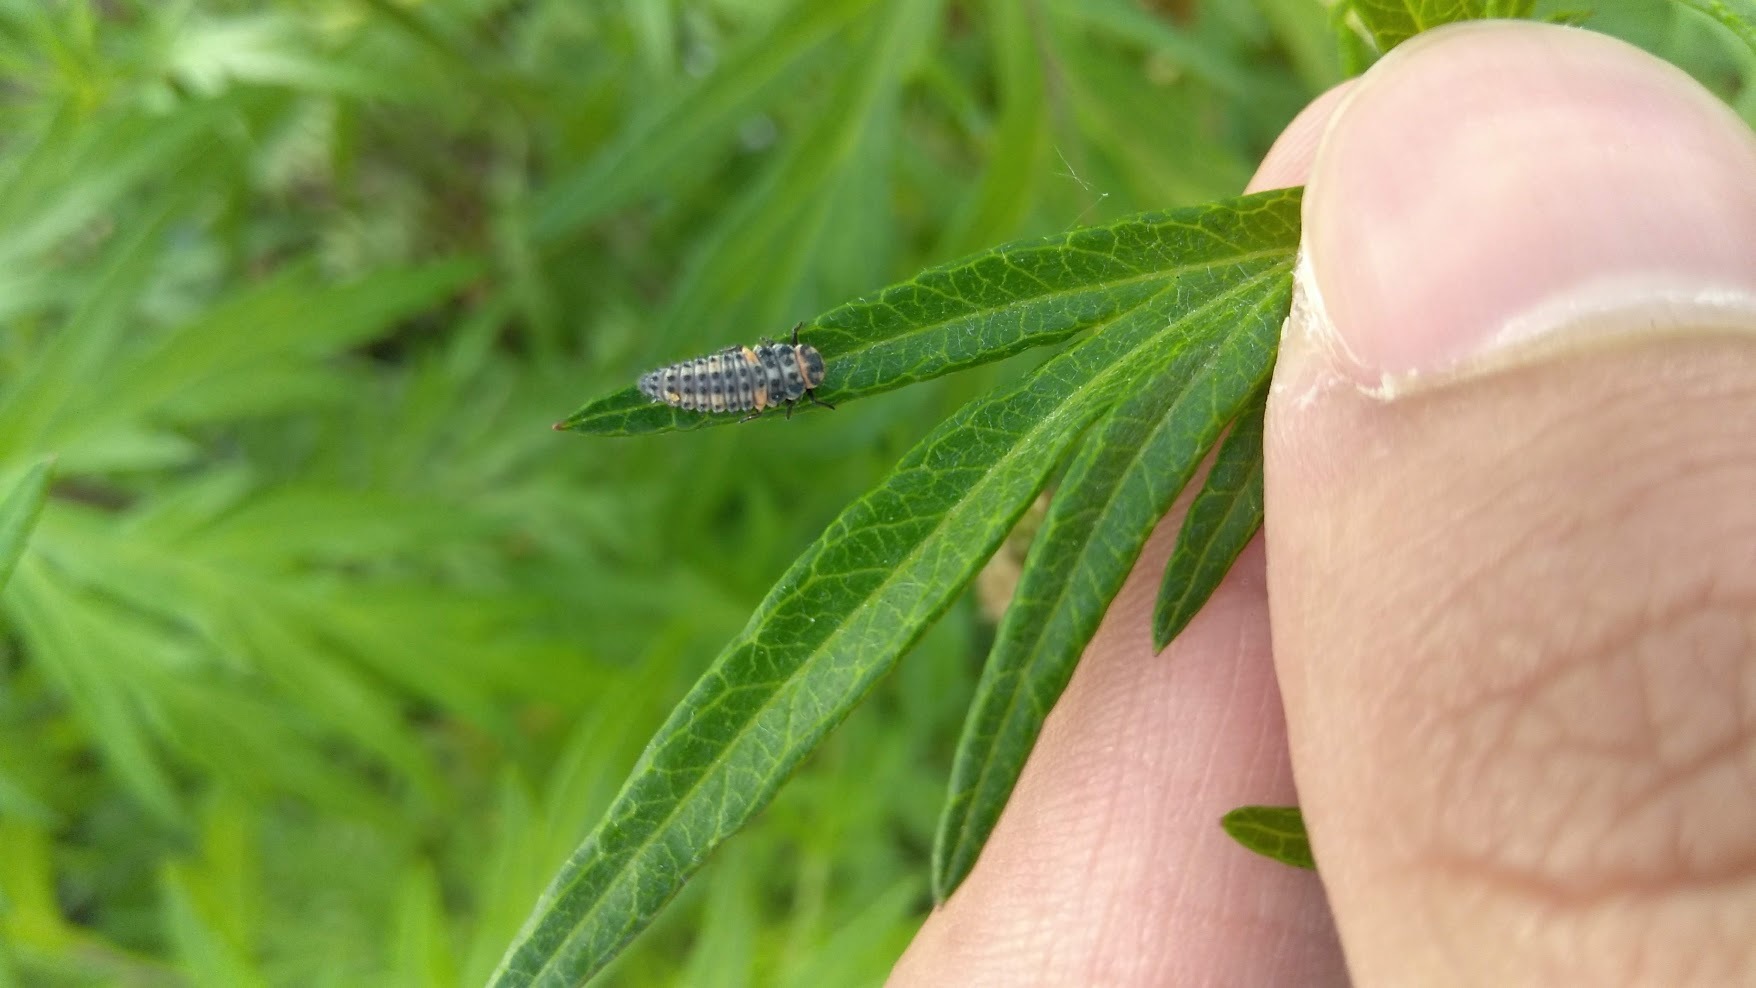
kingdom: Animalia
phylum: Arthropoda
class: Insecta
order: Coleoptera
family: Coccinellidae
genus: Coccinella
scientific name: Coccinella septempunctata
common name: Sevenspotted lady beetle
